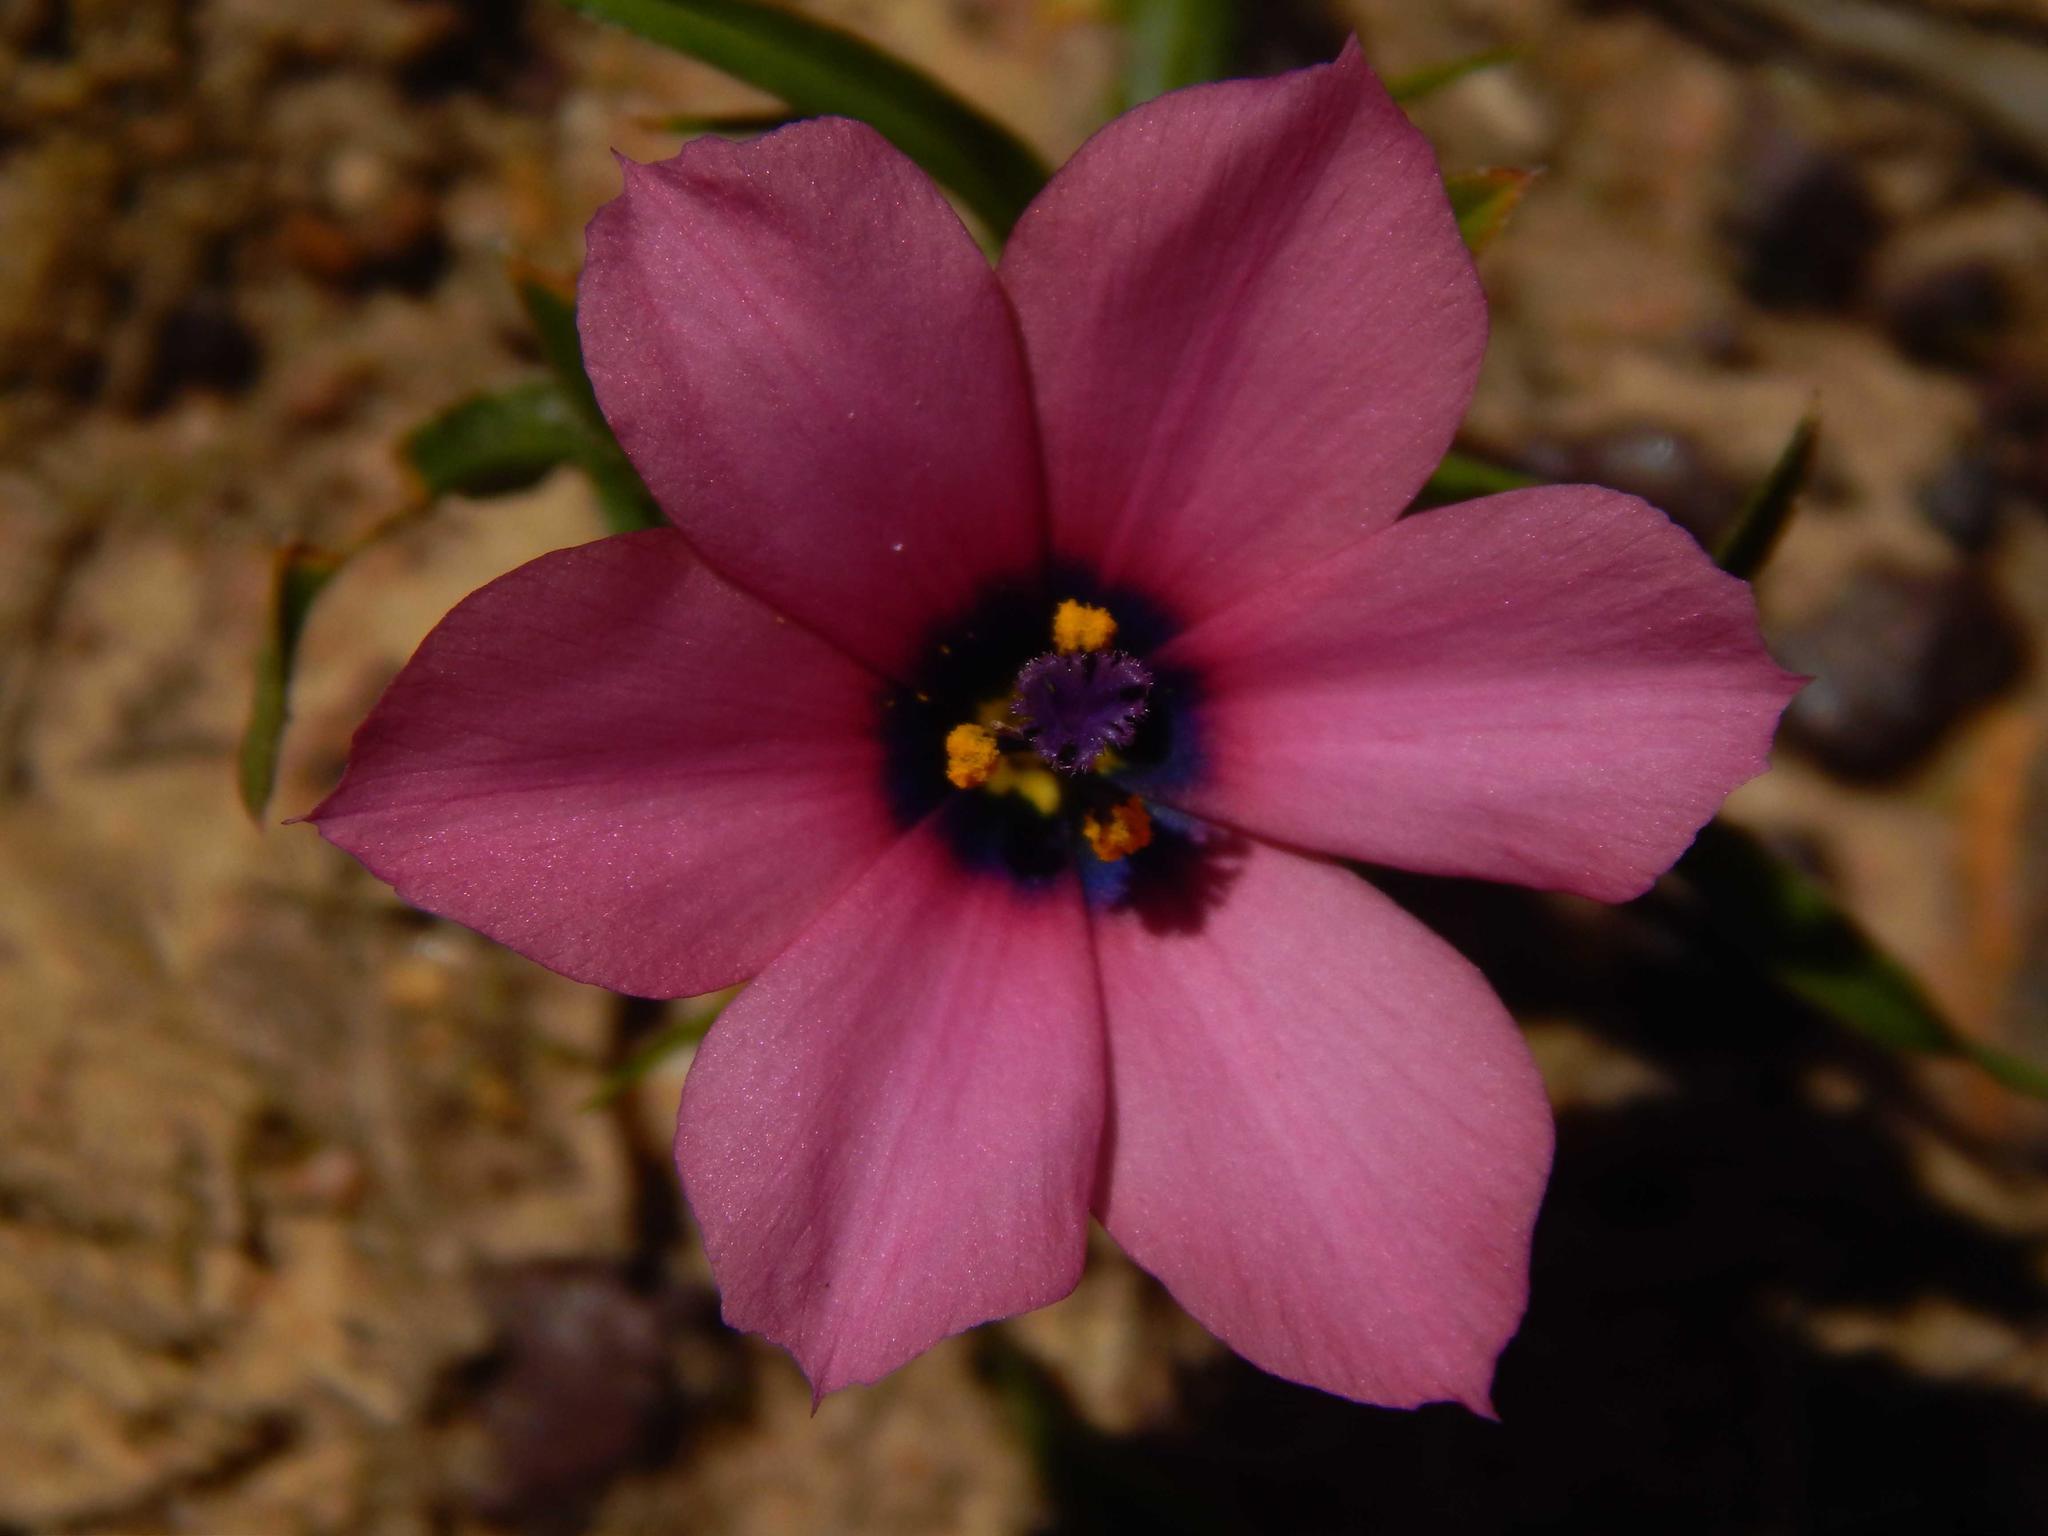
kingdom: Plantae
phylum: Tracheophyta
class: Liliopsida
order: Asparagales
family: Iridaceae
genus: Moraea
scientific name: Moraea versicolor
